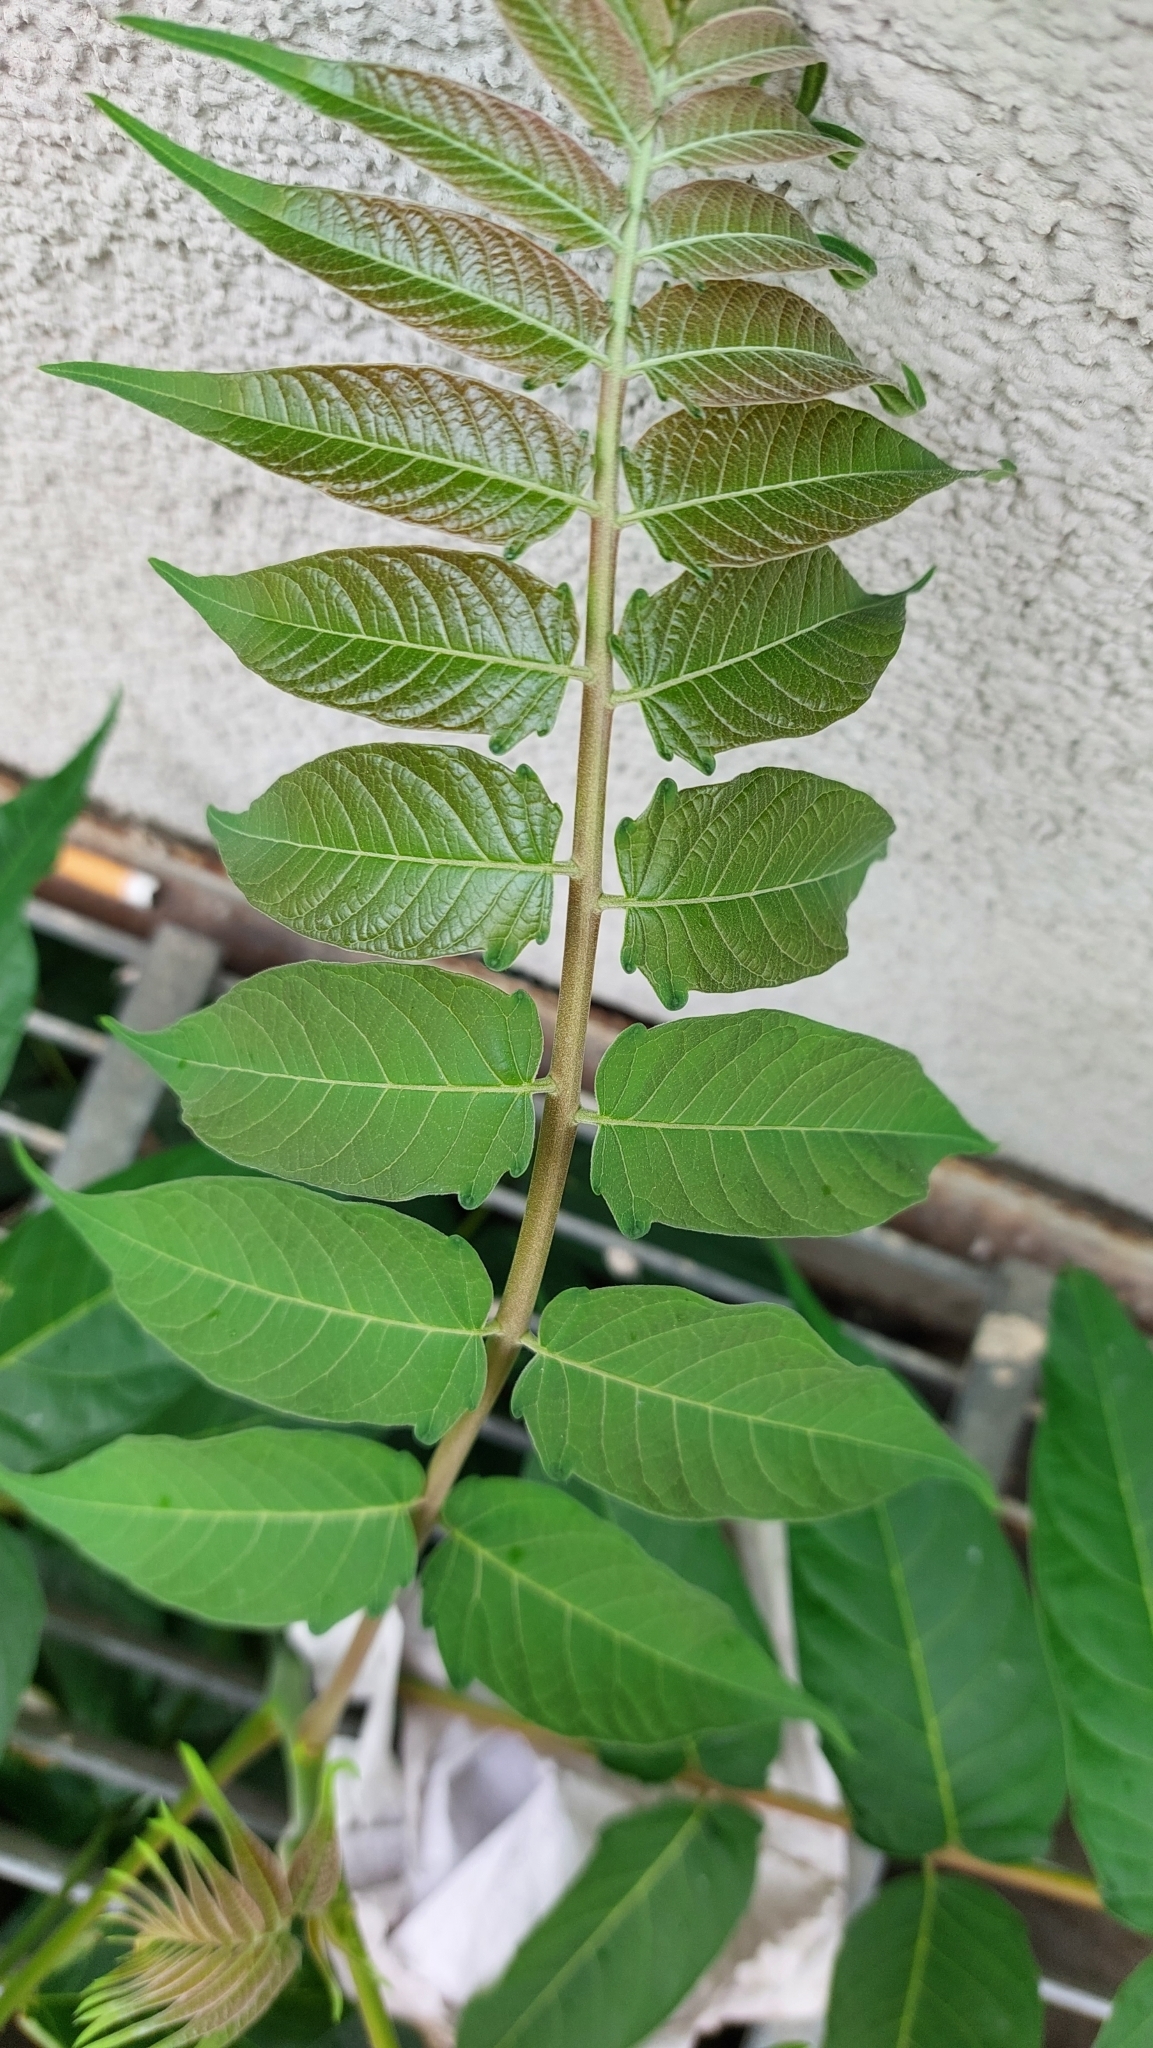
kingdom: Plantae
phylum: Tracheophyta
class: Magnoliopsida
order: Sapindales
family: Simaroubaceae
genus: Ailanthus
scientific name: Ailanthus altissima
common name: Tree-of-heaven
